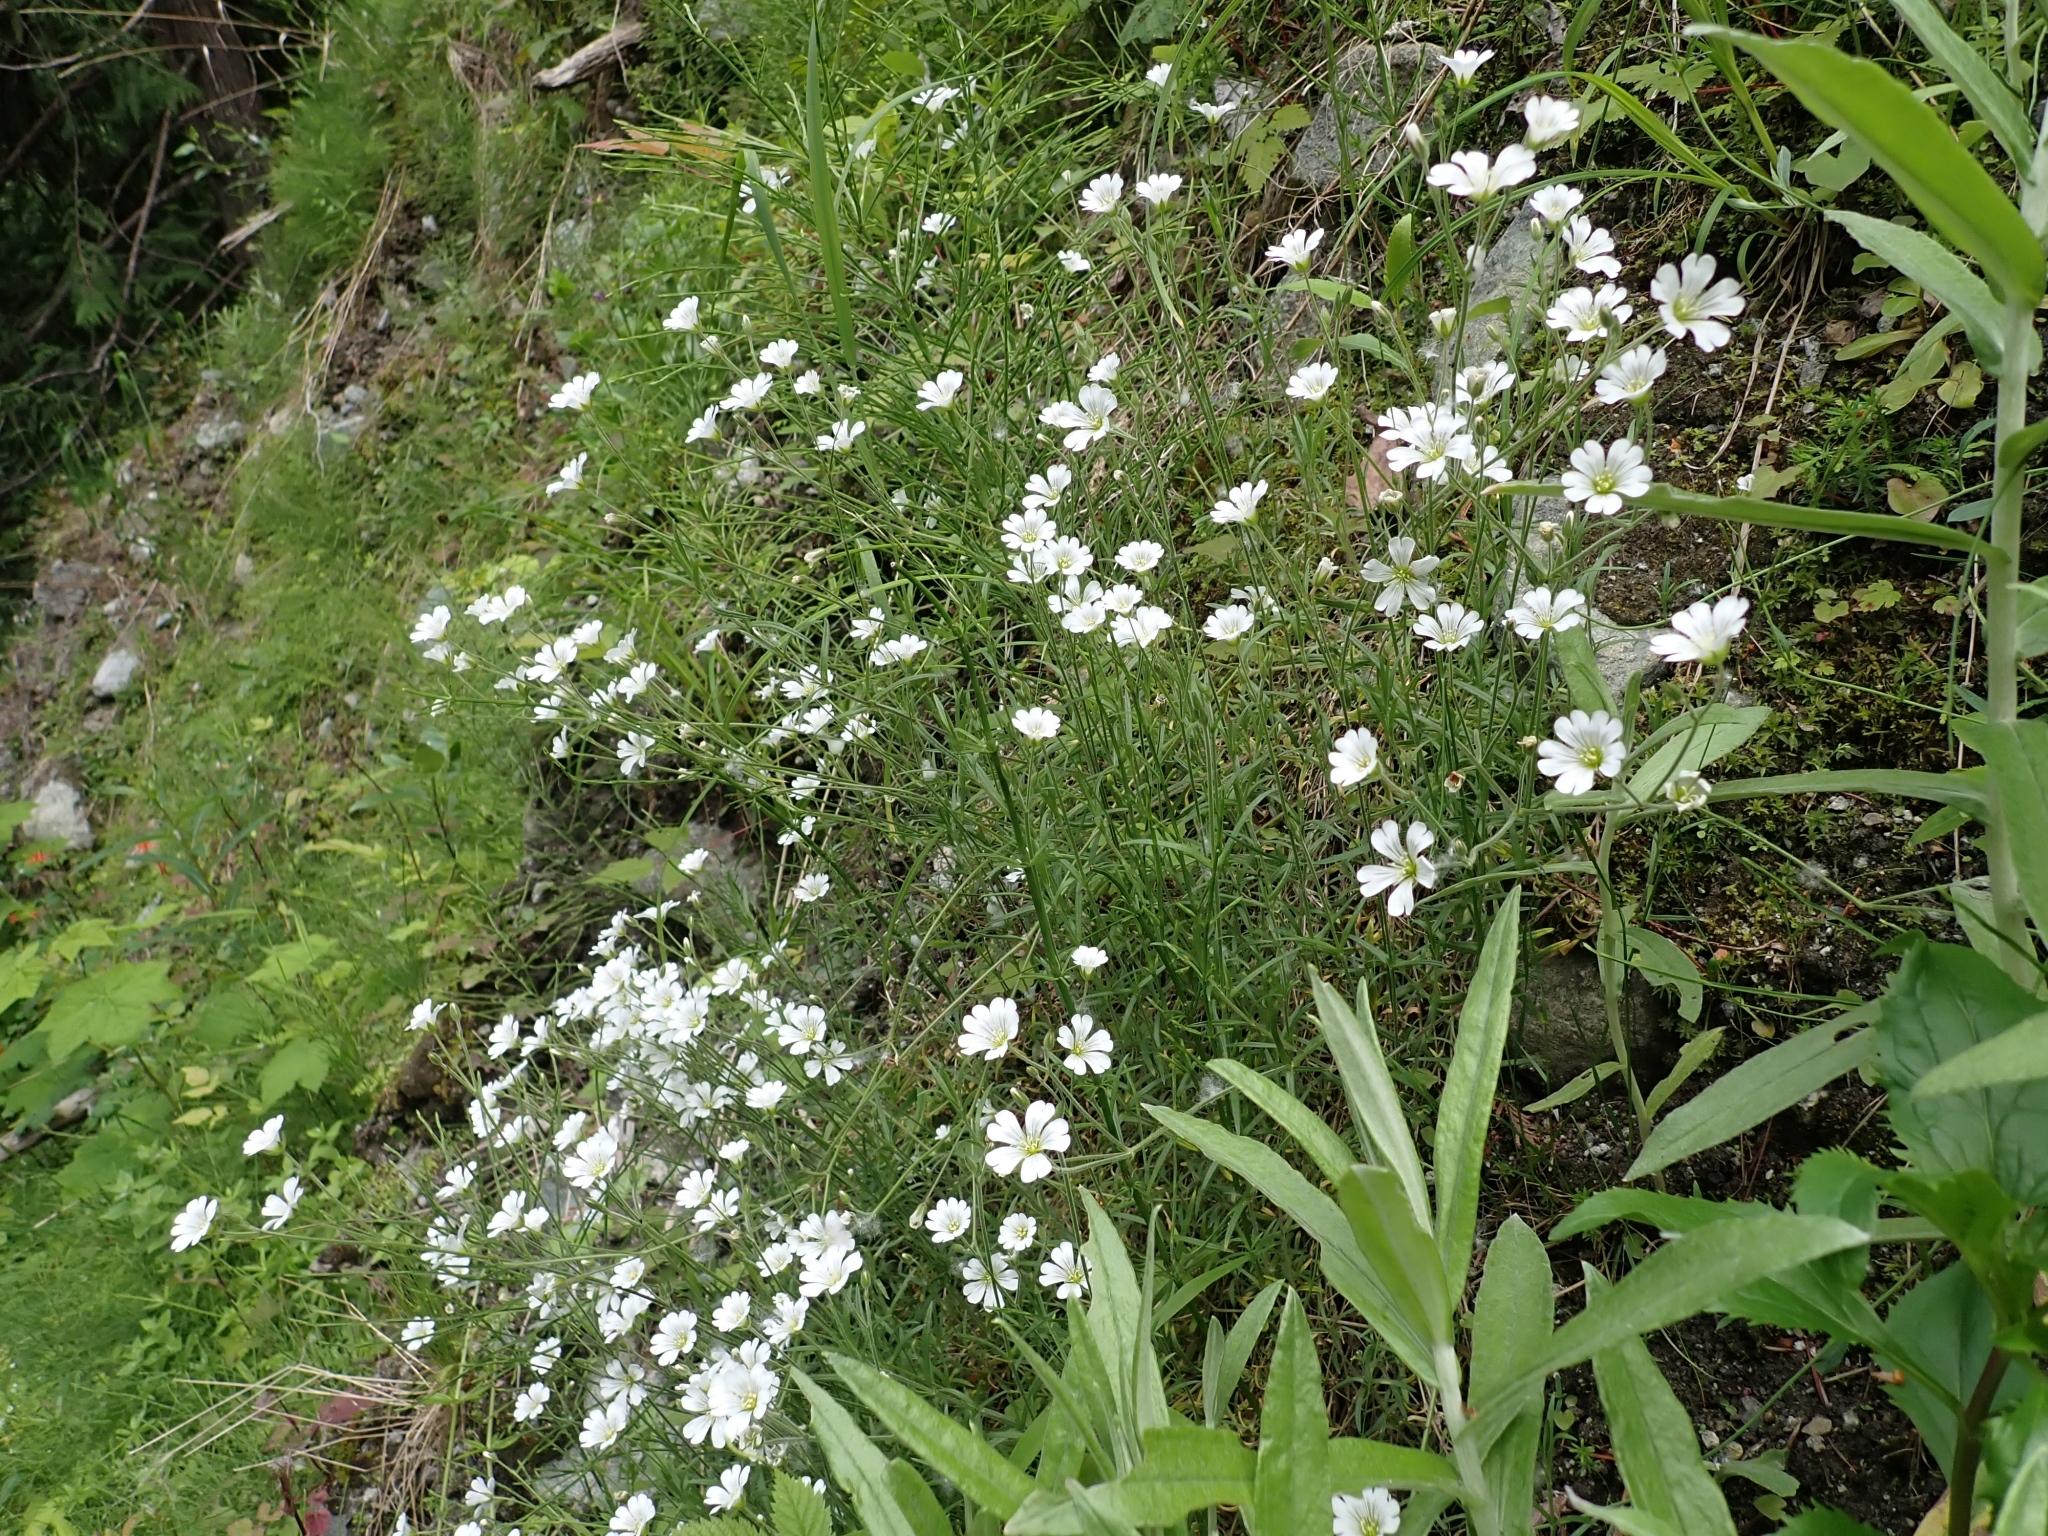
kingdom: Plantae
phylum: Tracheophyta
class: Magnoliopsida
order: Caryophyllales
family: Caryophyllaceae
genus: Cerastium
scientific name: Cerastium arvense
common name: Field mouse-ear
